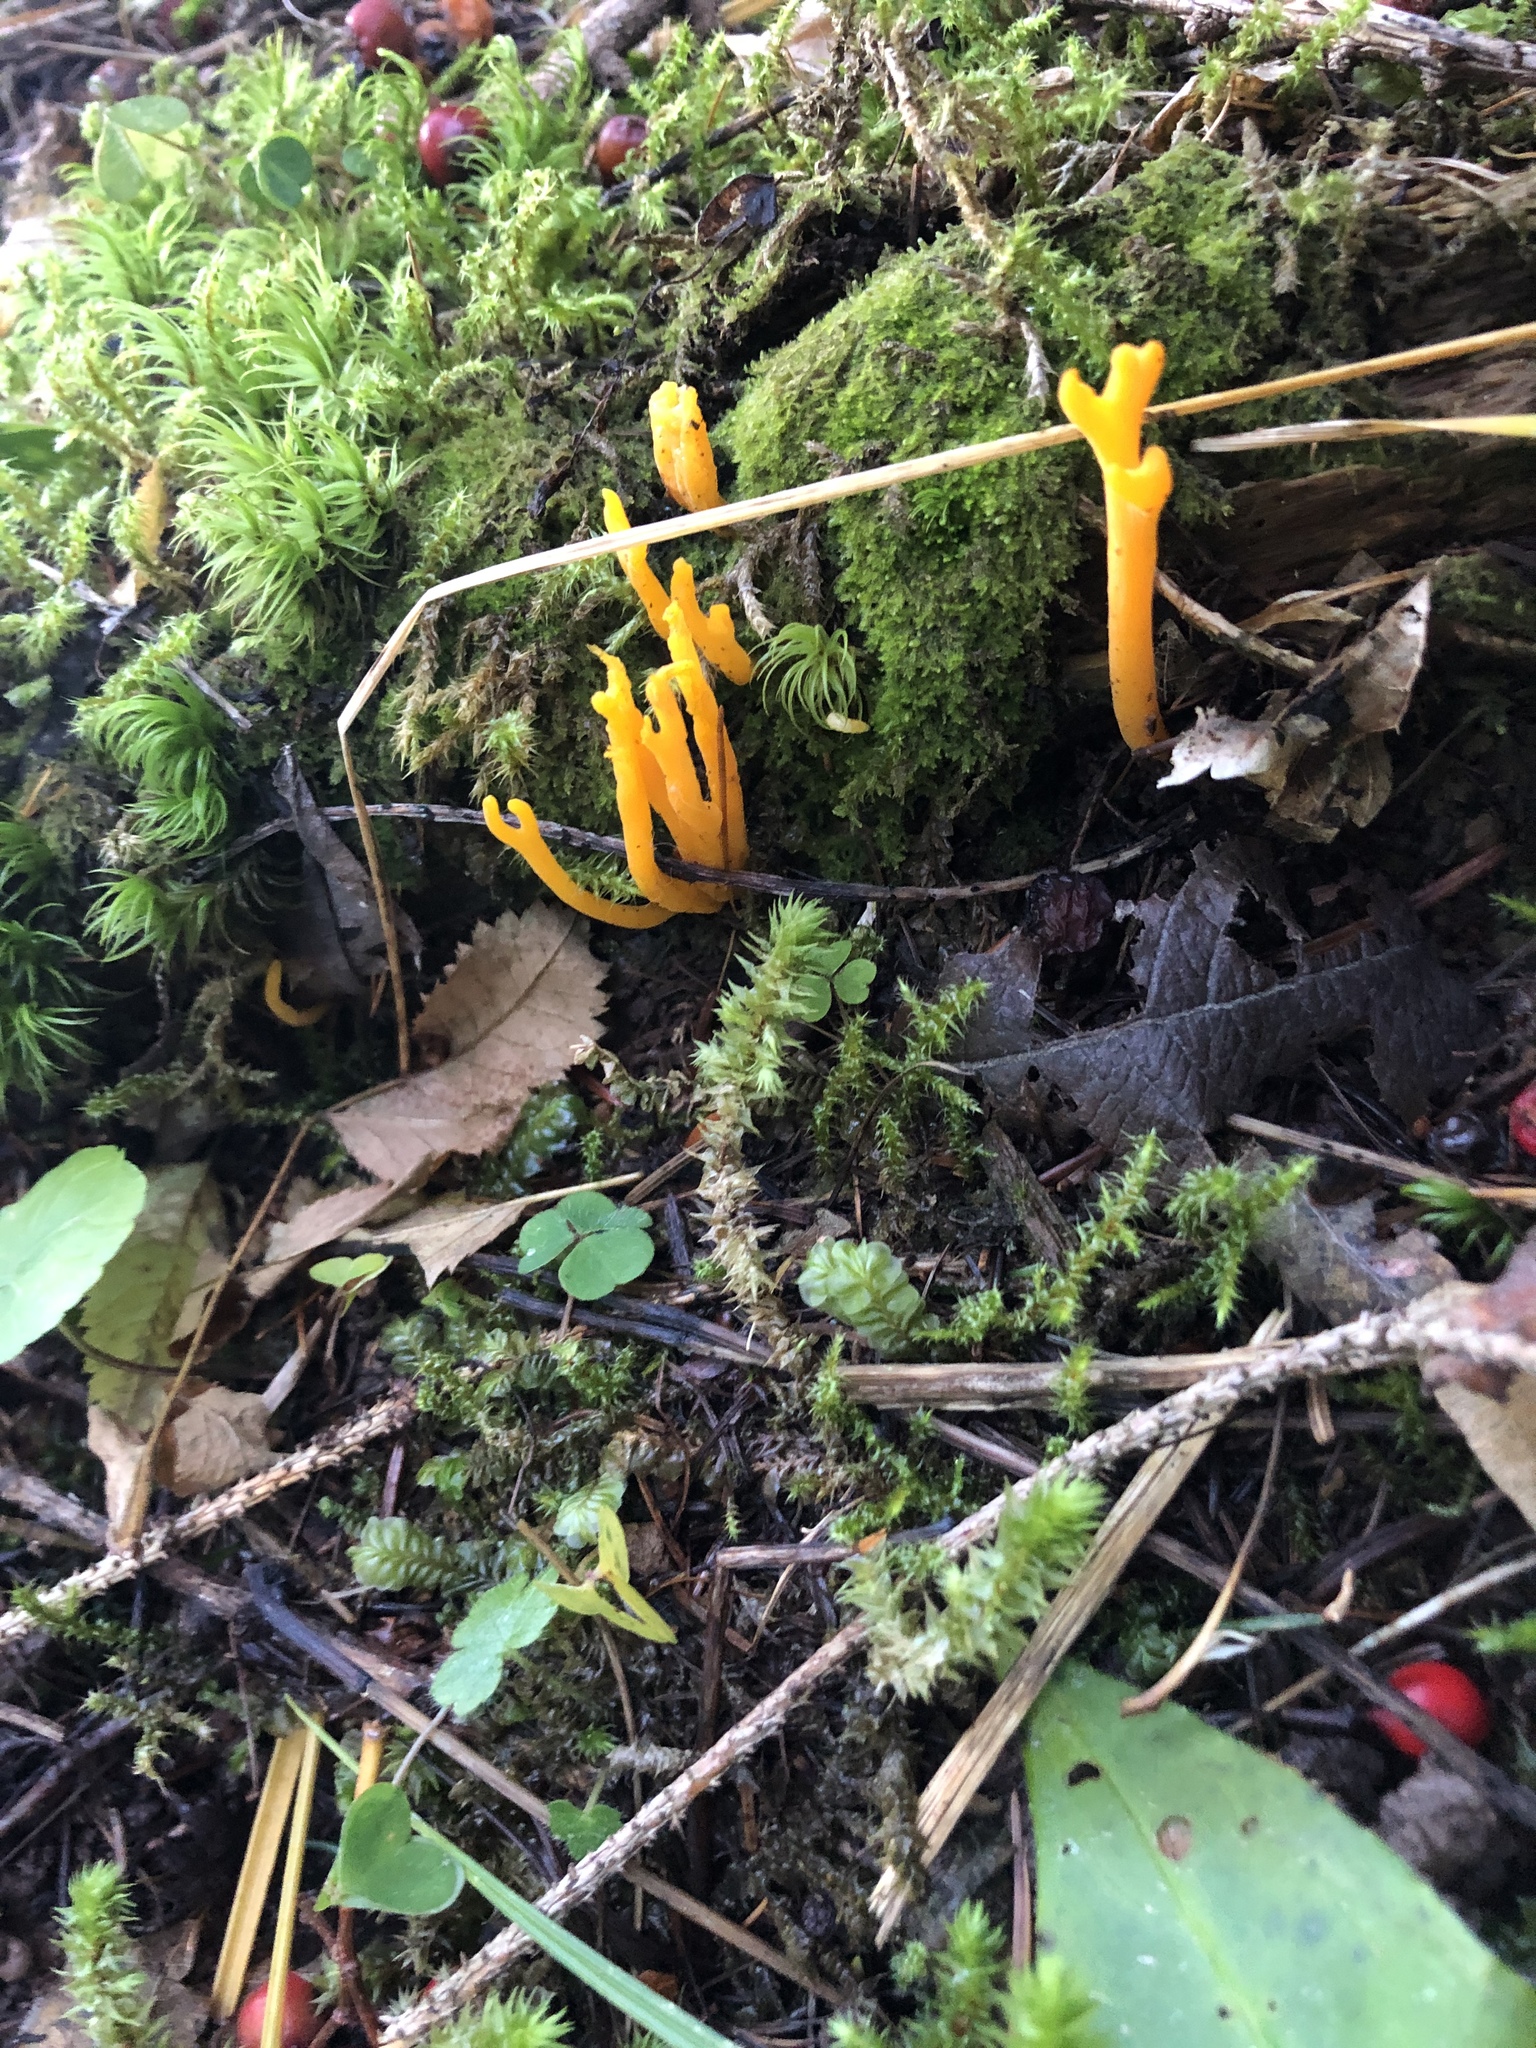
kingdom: Fungi
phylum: Basidiomycota
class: Dacrymycetes
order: Dacrymycetales
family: Dacrymycetaceae
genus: Calocera
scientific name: Calocera viscosa
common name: Yellow stagshorn
